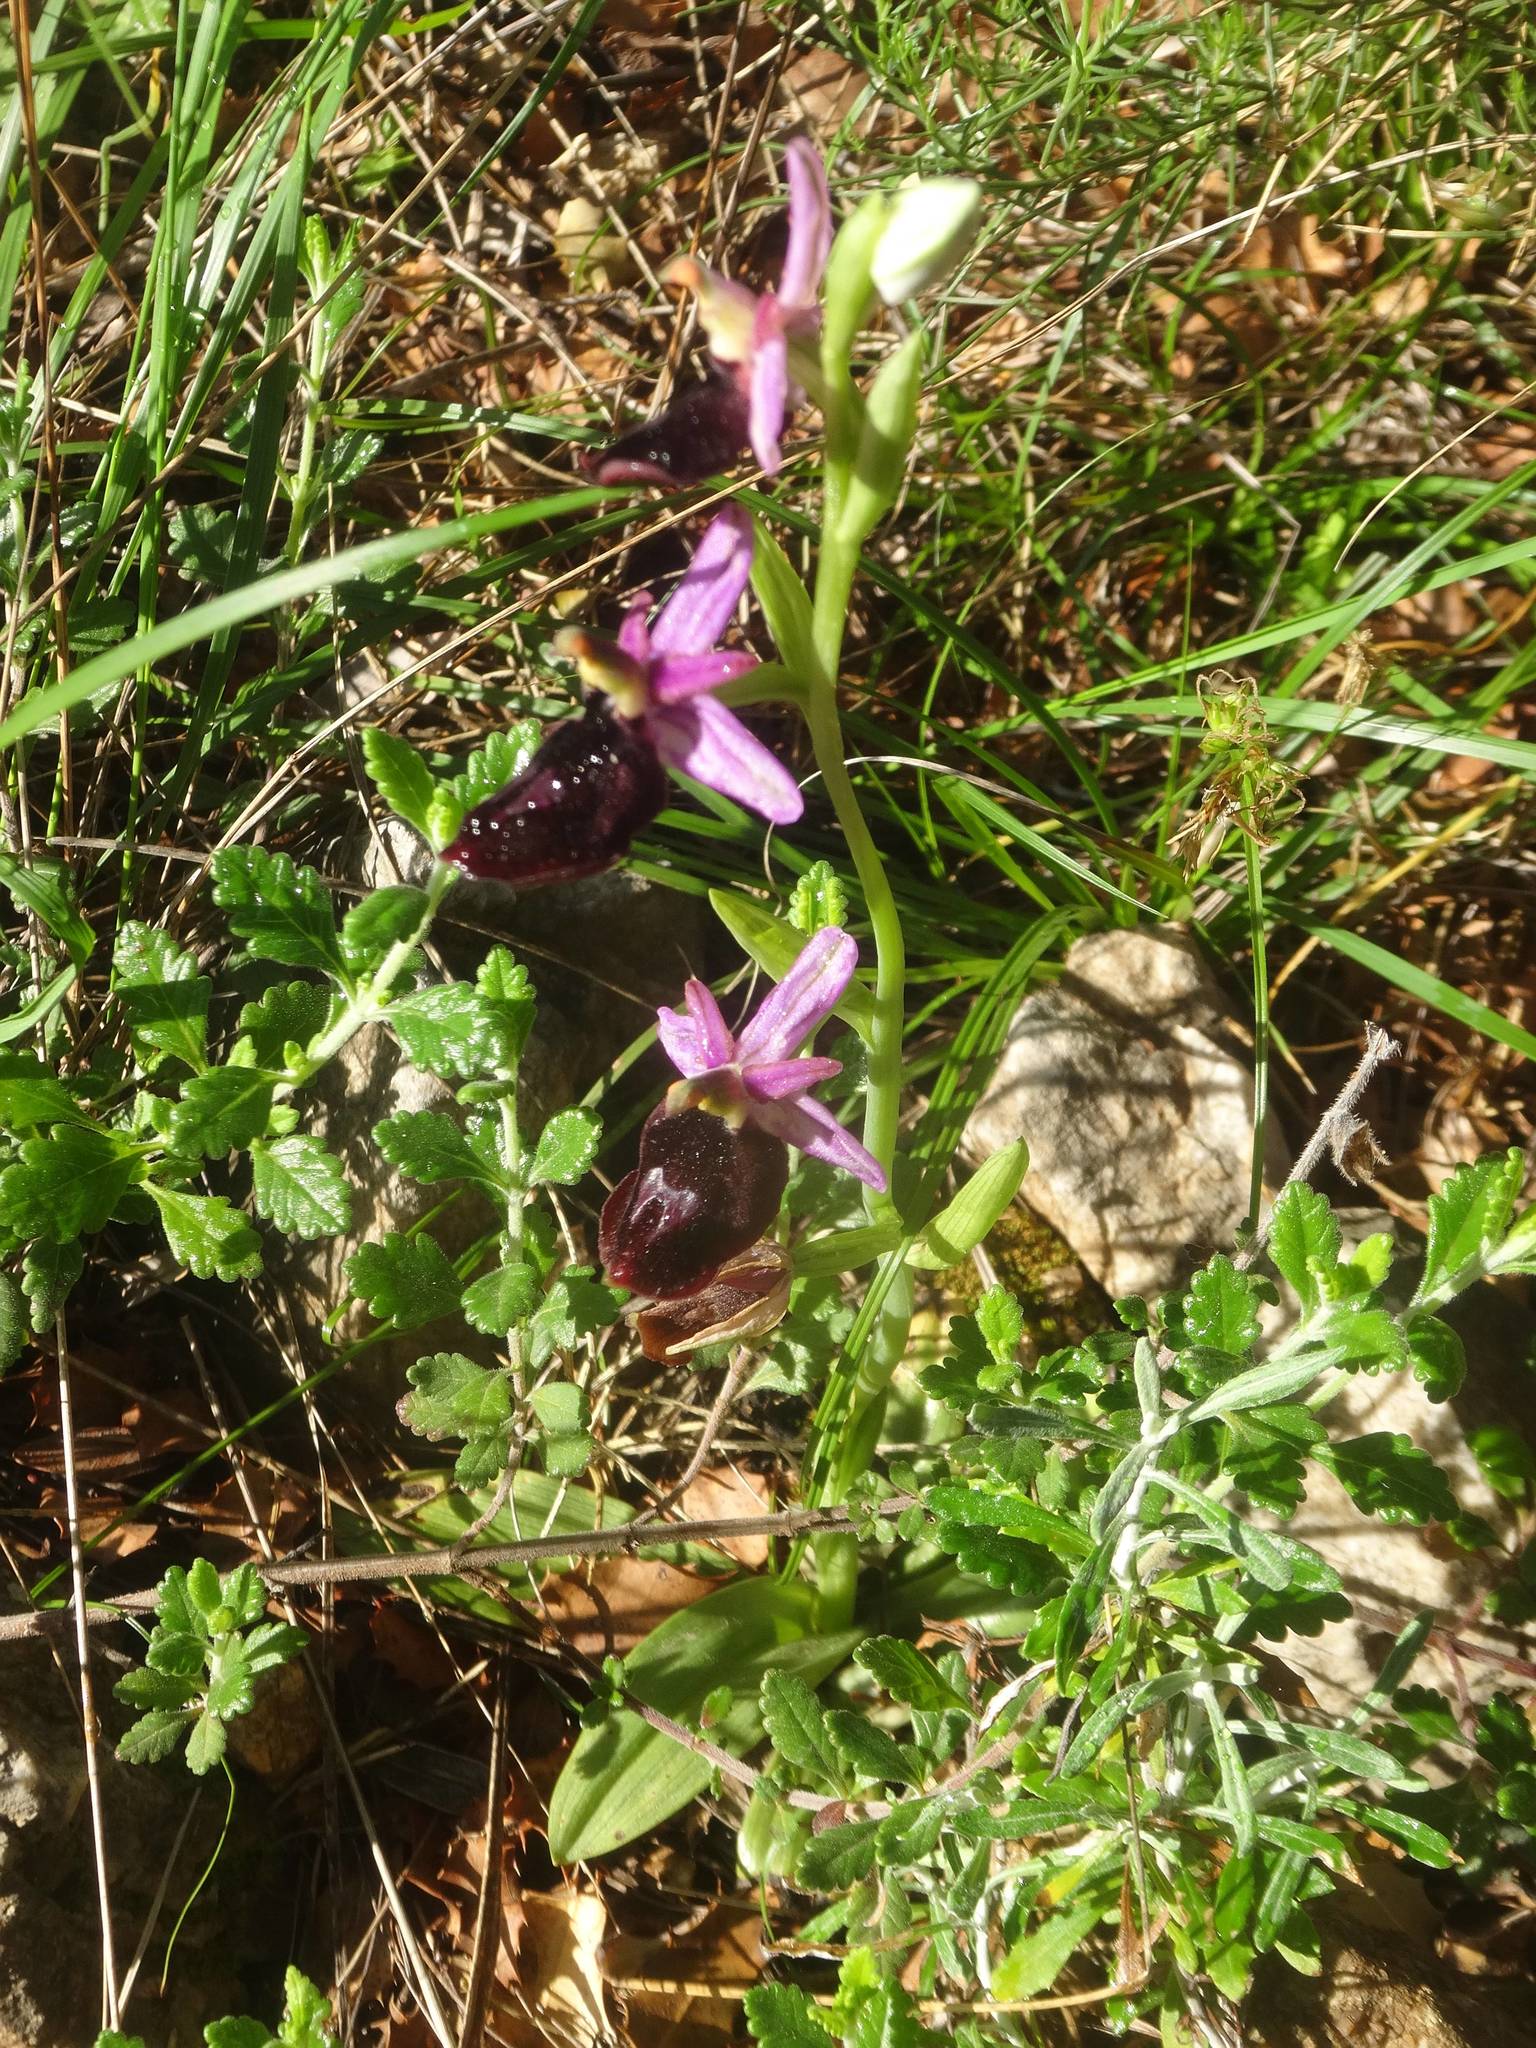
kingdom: Plantae
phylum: Tracheophyta
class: Liliopsida
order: Asparagales
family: Orchidaceae
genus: Ophrys
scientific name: Ophrys ferrum-equinum
